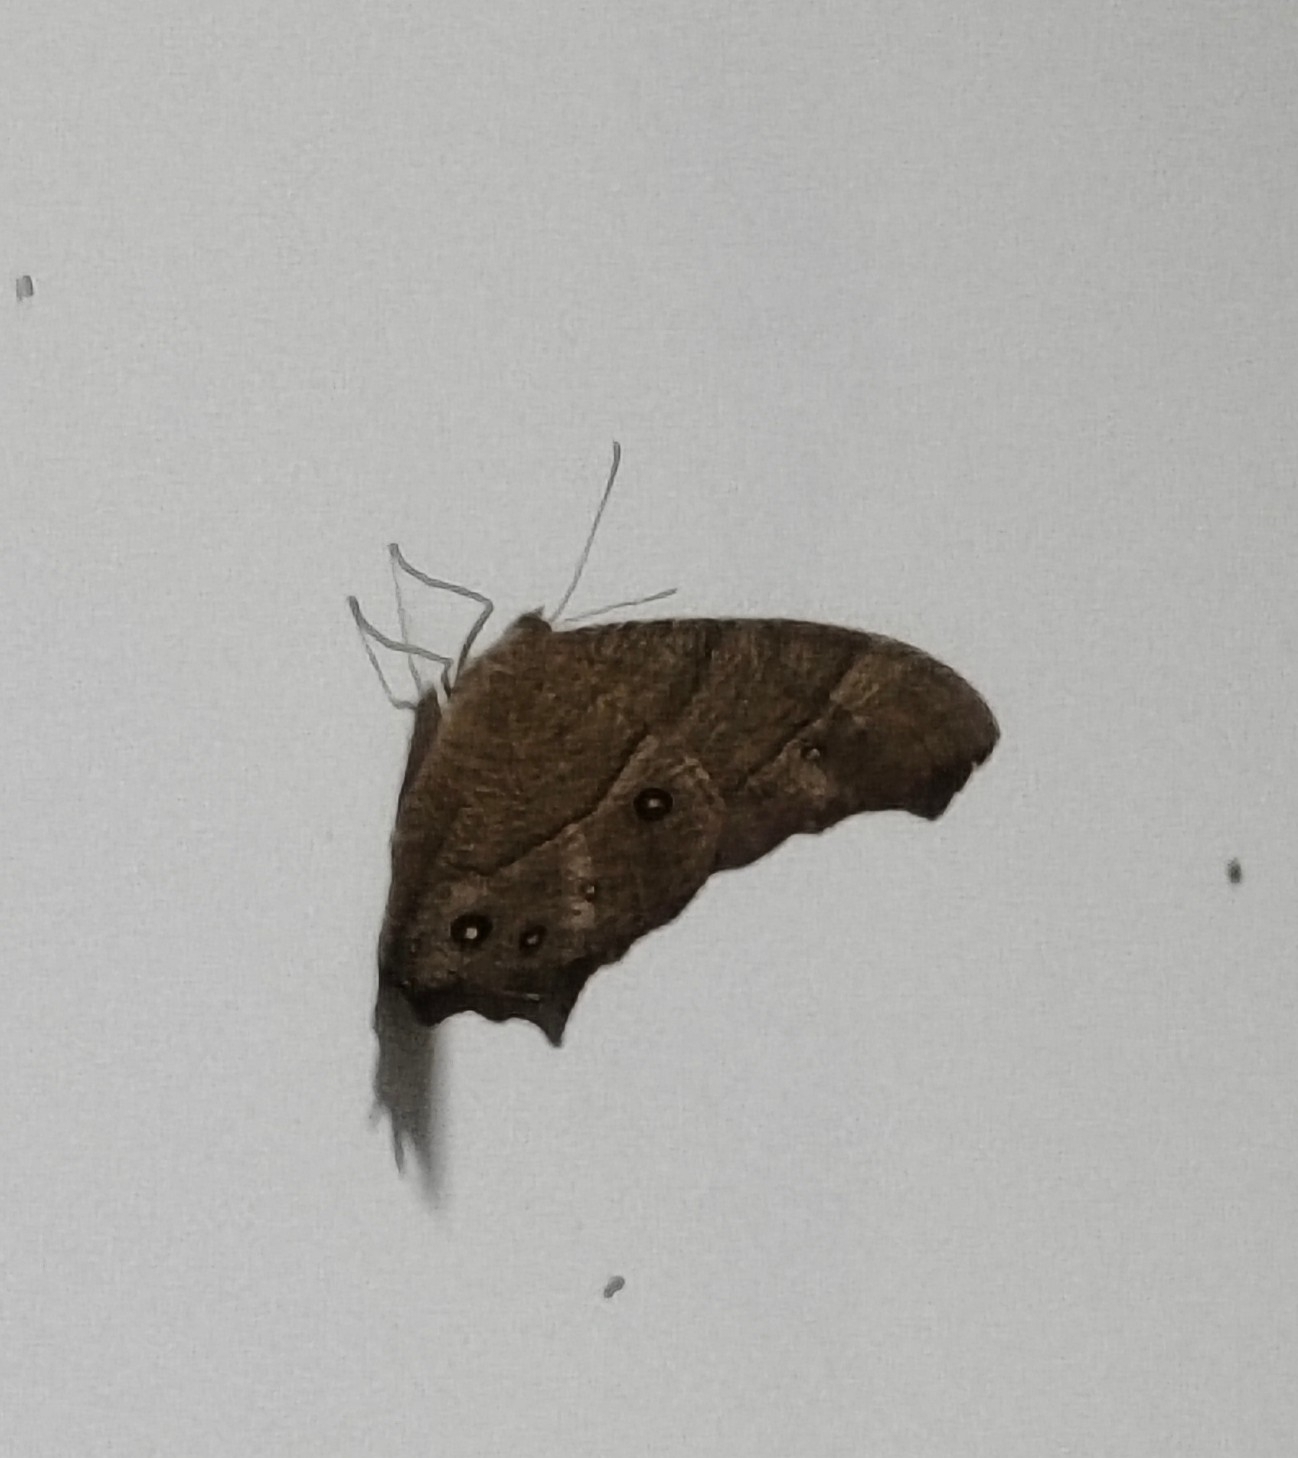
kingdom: Animalia
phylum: Arthropoda
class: Insecta
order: Lepidoptera
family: Nymphalidae
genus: Melanitis
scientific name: Melanitis leda
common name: Twilight brown
